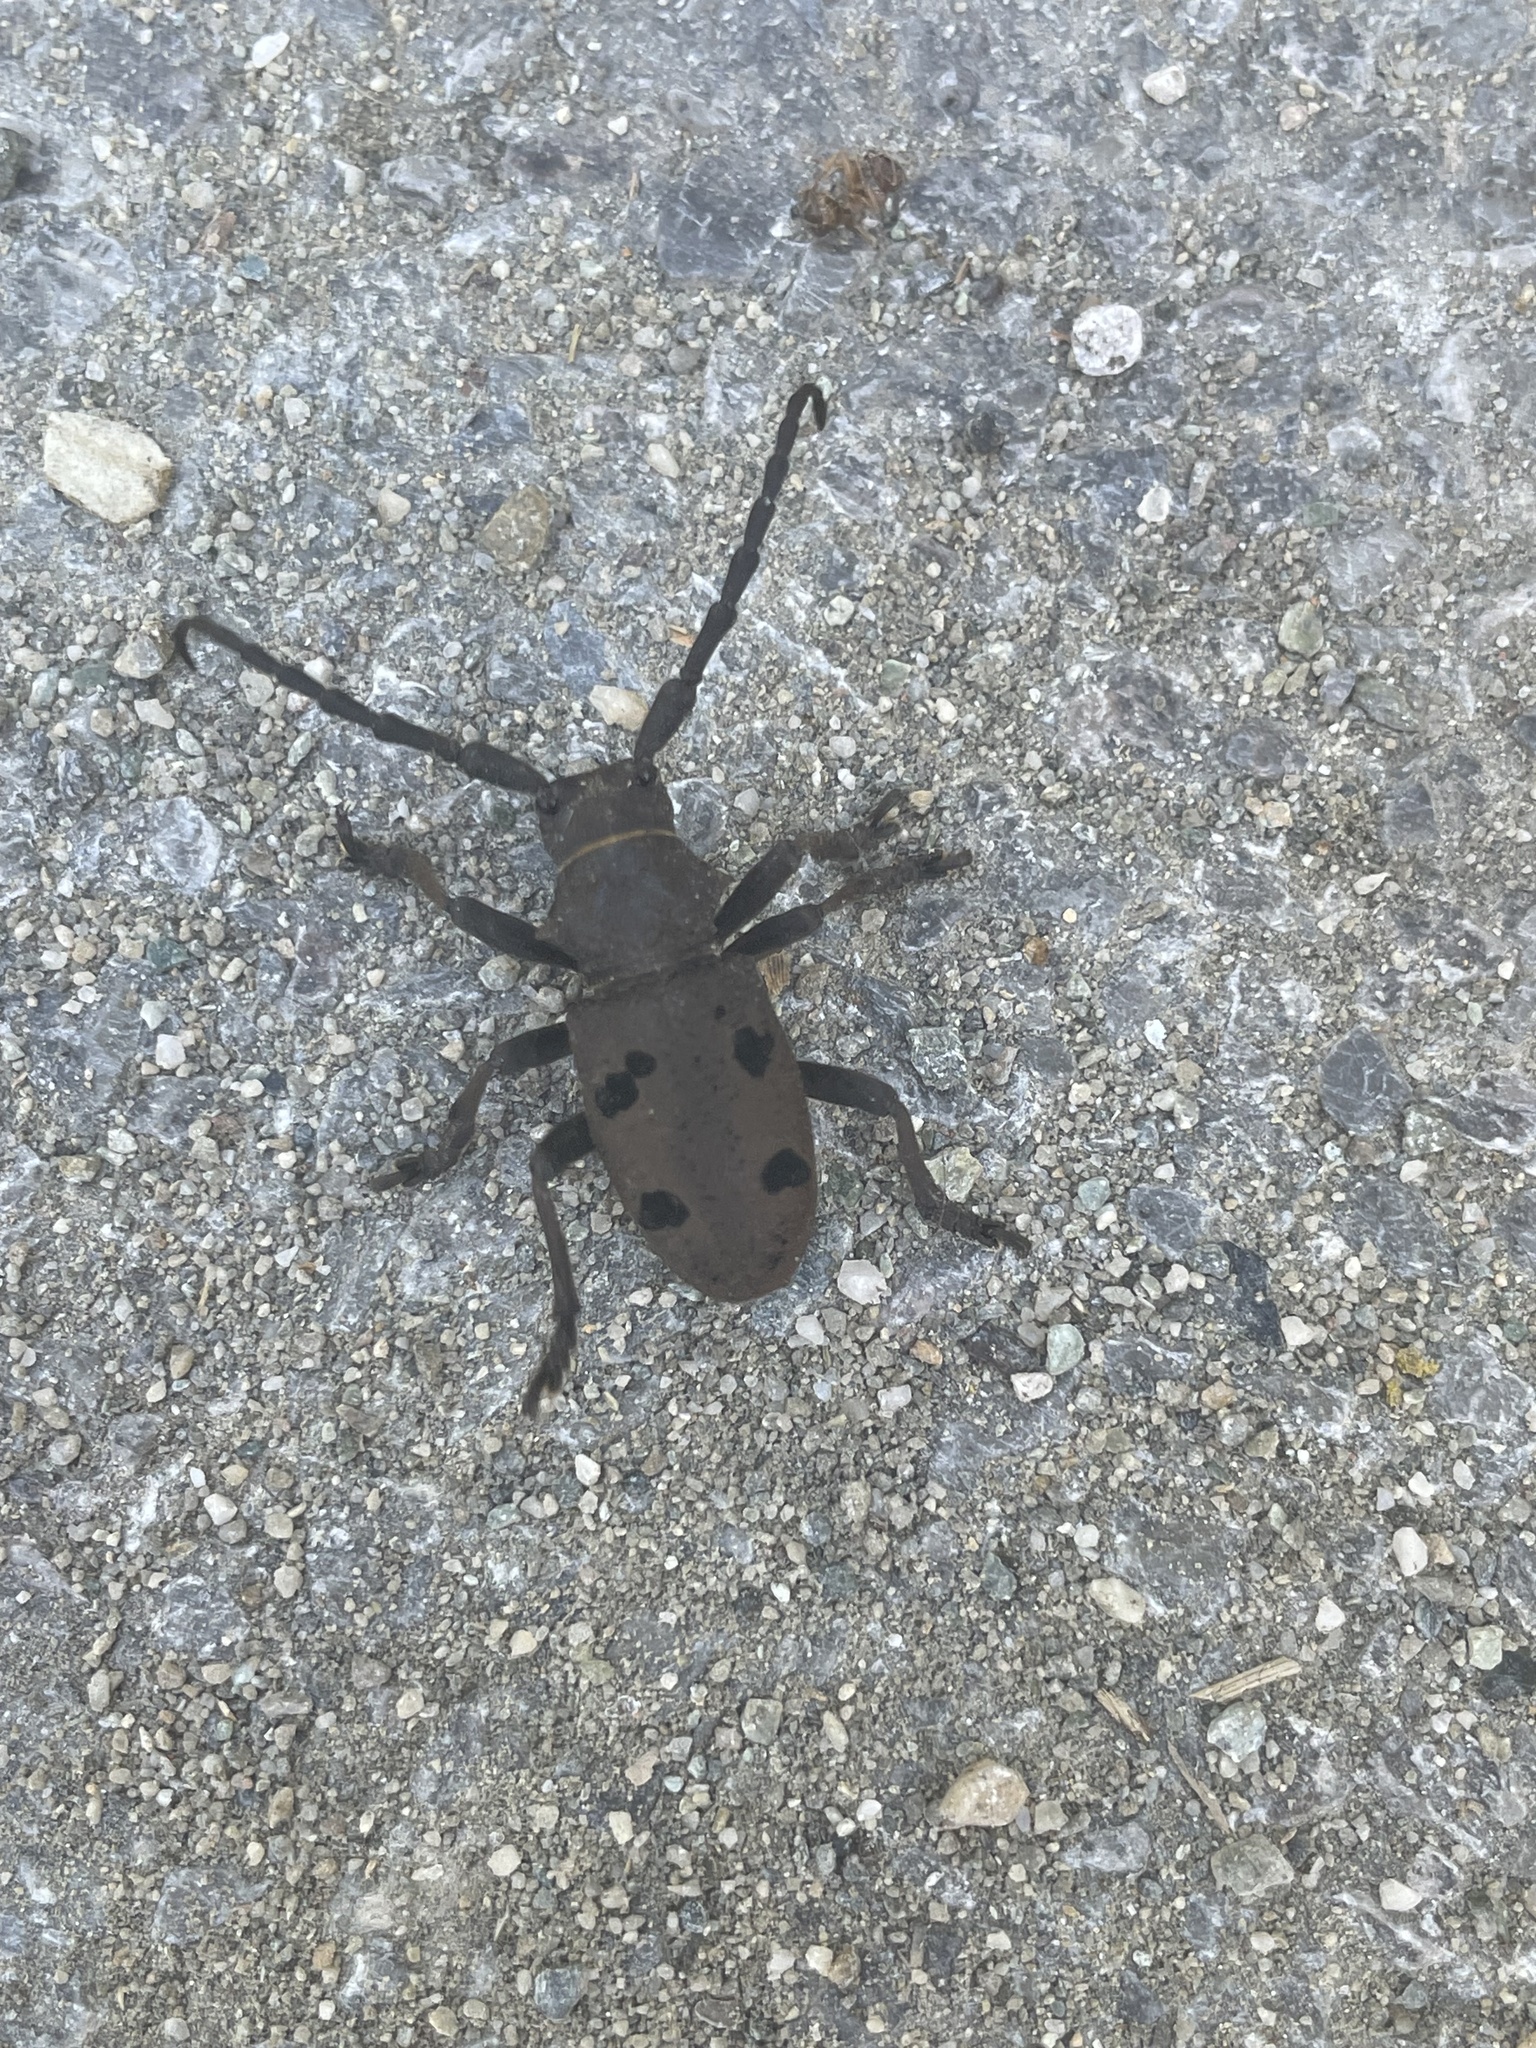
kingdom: Animalia
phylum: Arthropoda
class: Insecta
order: Coleoptera
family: Cerambycidae
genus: Herophila
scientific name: Herophila tristis
